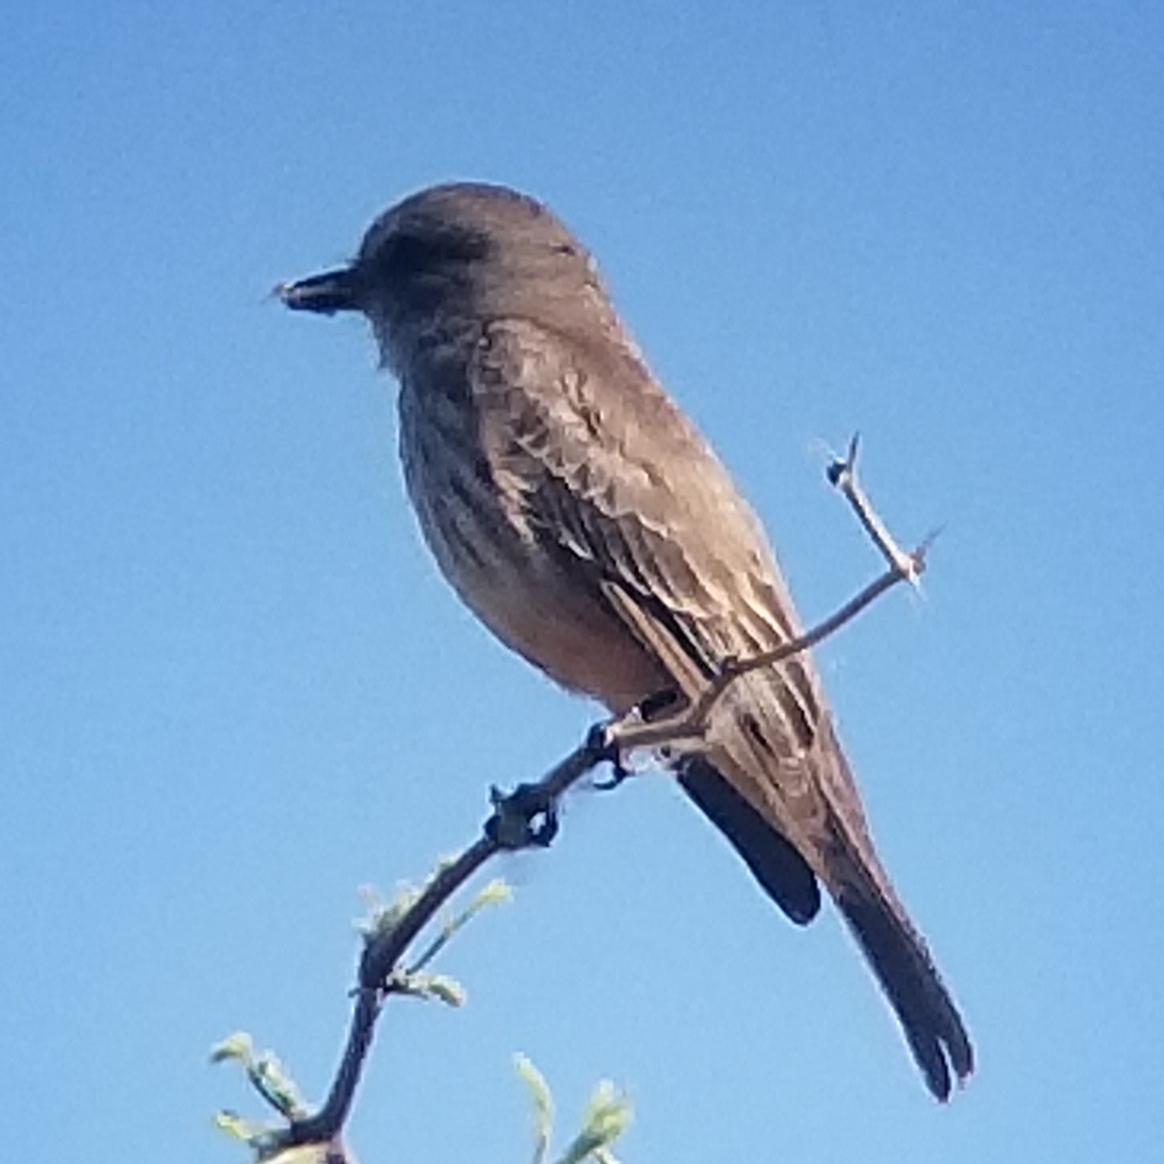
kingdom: Animalia
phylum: Chordata
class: Aves
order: Passeriformes
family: Tyrannidae
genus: Pyrocephalus
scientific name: Pyrocephalus rubinus
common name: Vermilion flycatcher
